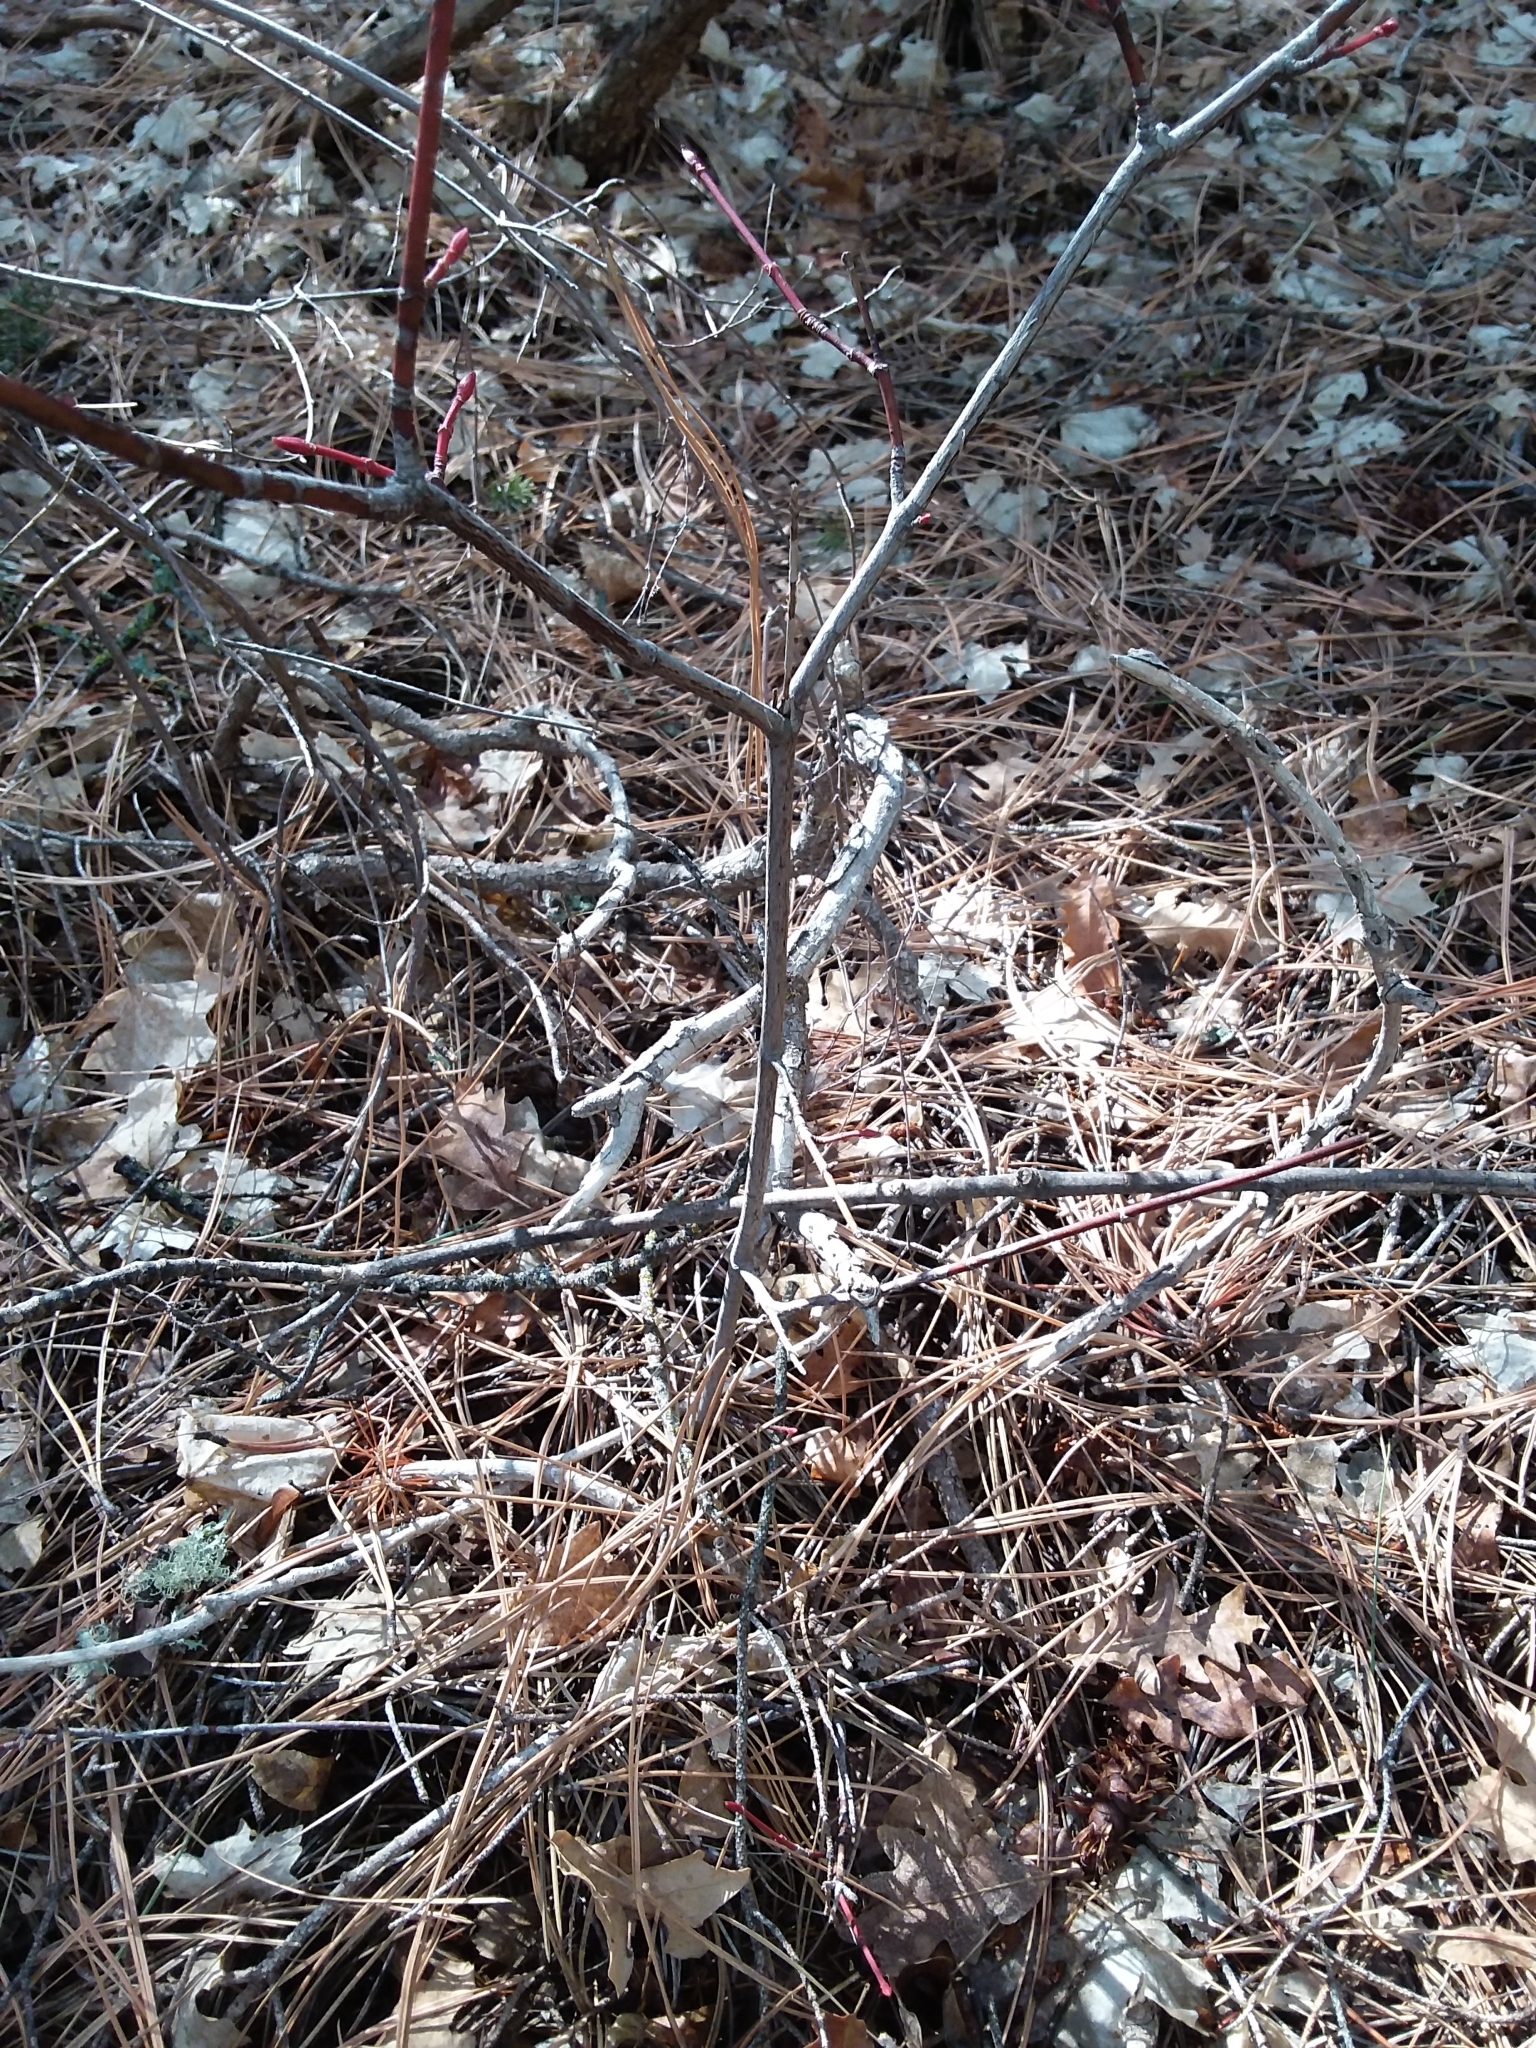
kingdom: Plantae
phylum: Tracheophyta
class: Magnoliopsida
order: Sapindales
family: Sapindaceae
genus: Acer
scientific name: Acer glabrum
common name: Rocky mountain maple
